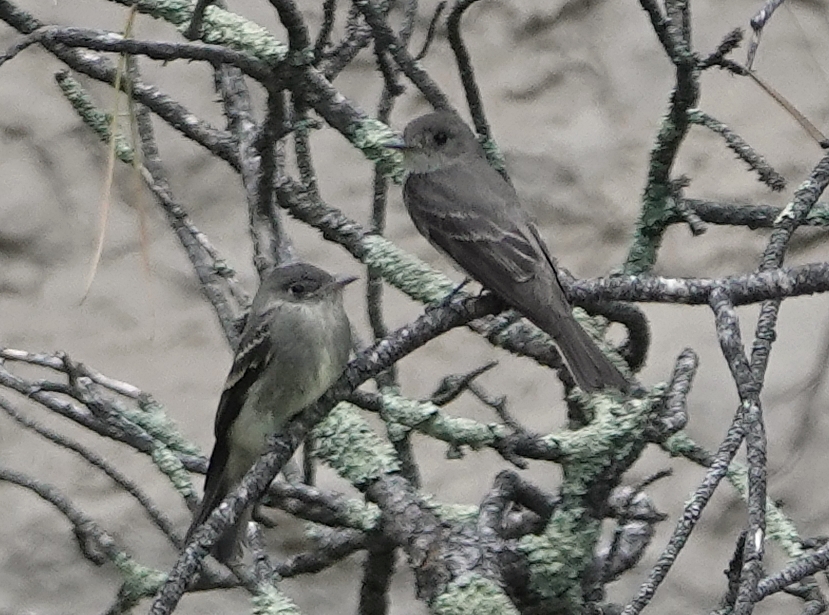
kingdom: Animalia
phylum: Chordata
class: Aves
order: Passeriformes
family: Tyrannidae
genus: Contopus
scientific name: Contopus sordidulus
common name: Western wood-pewee
